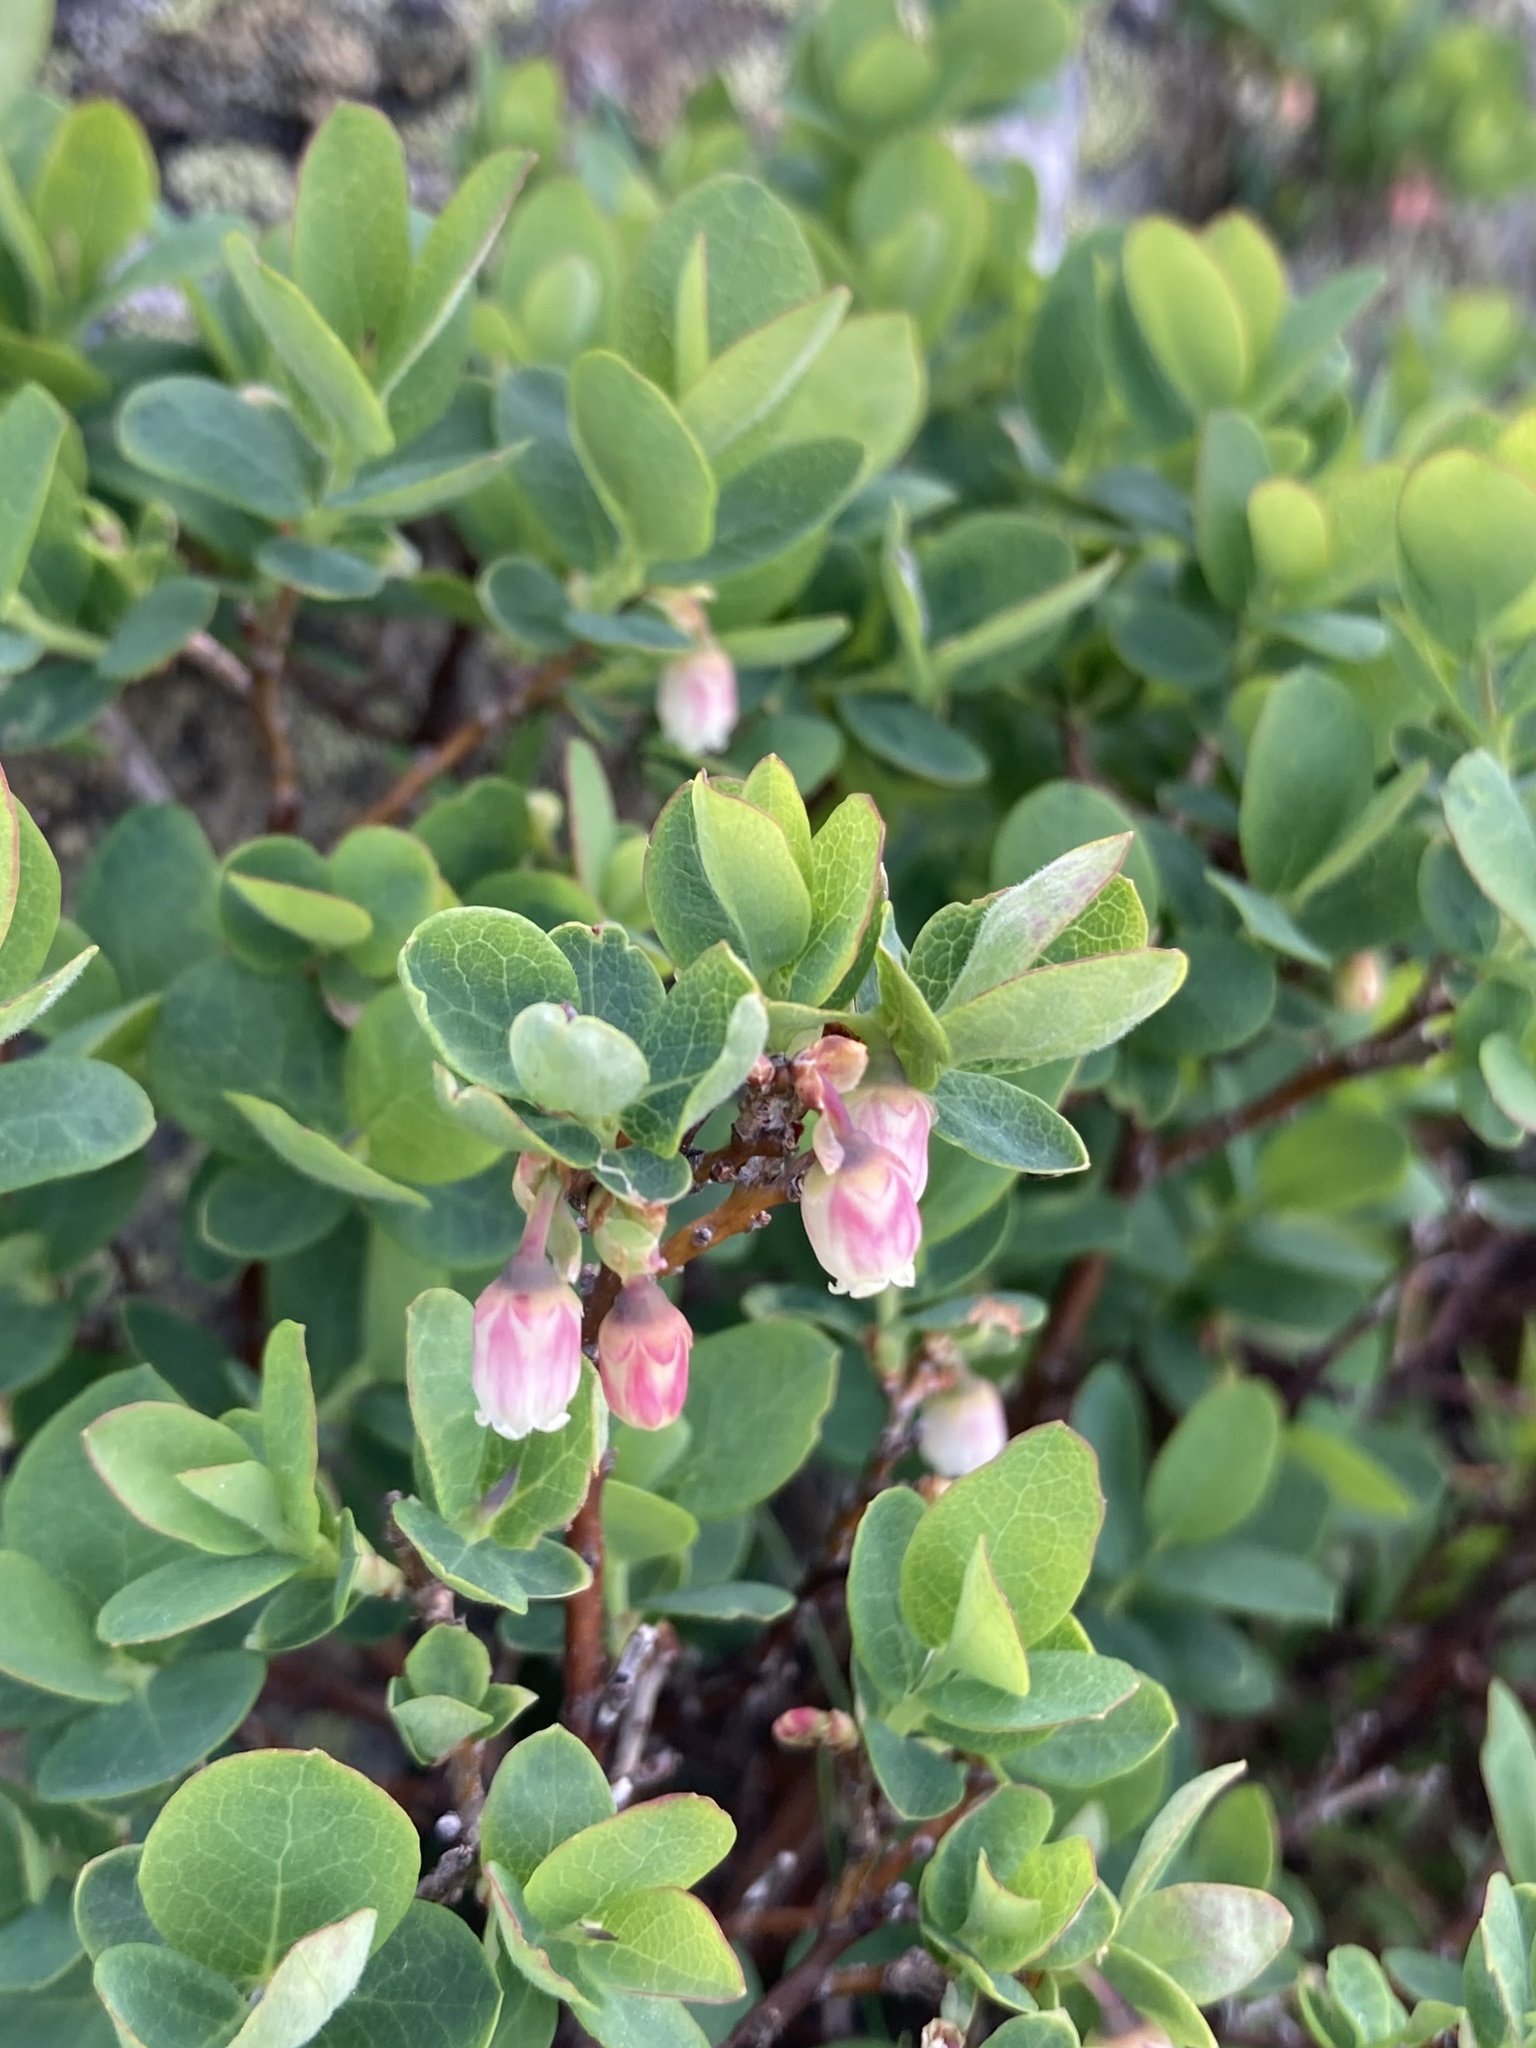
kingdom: Plantae
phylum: Tracheophyta
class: Magnoliopsida
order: Ericales
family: Ericaceae
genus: Vaccinium
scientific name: Vaccinium uliginosum
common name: Bog bilberry
